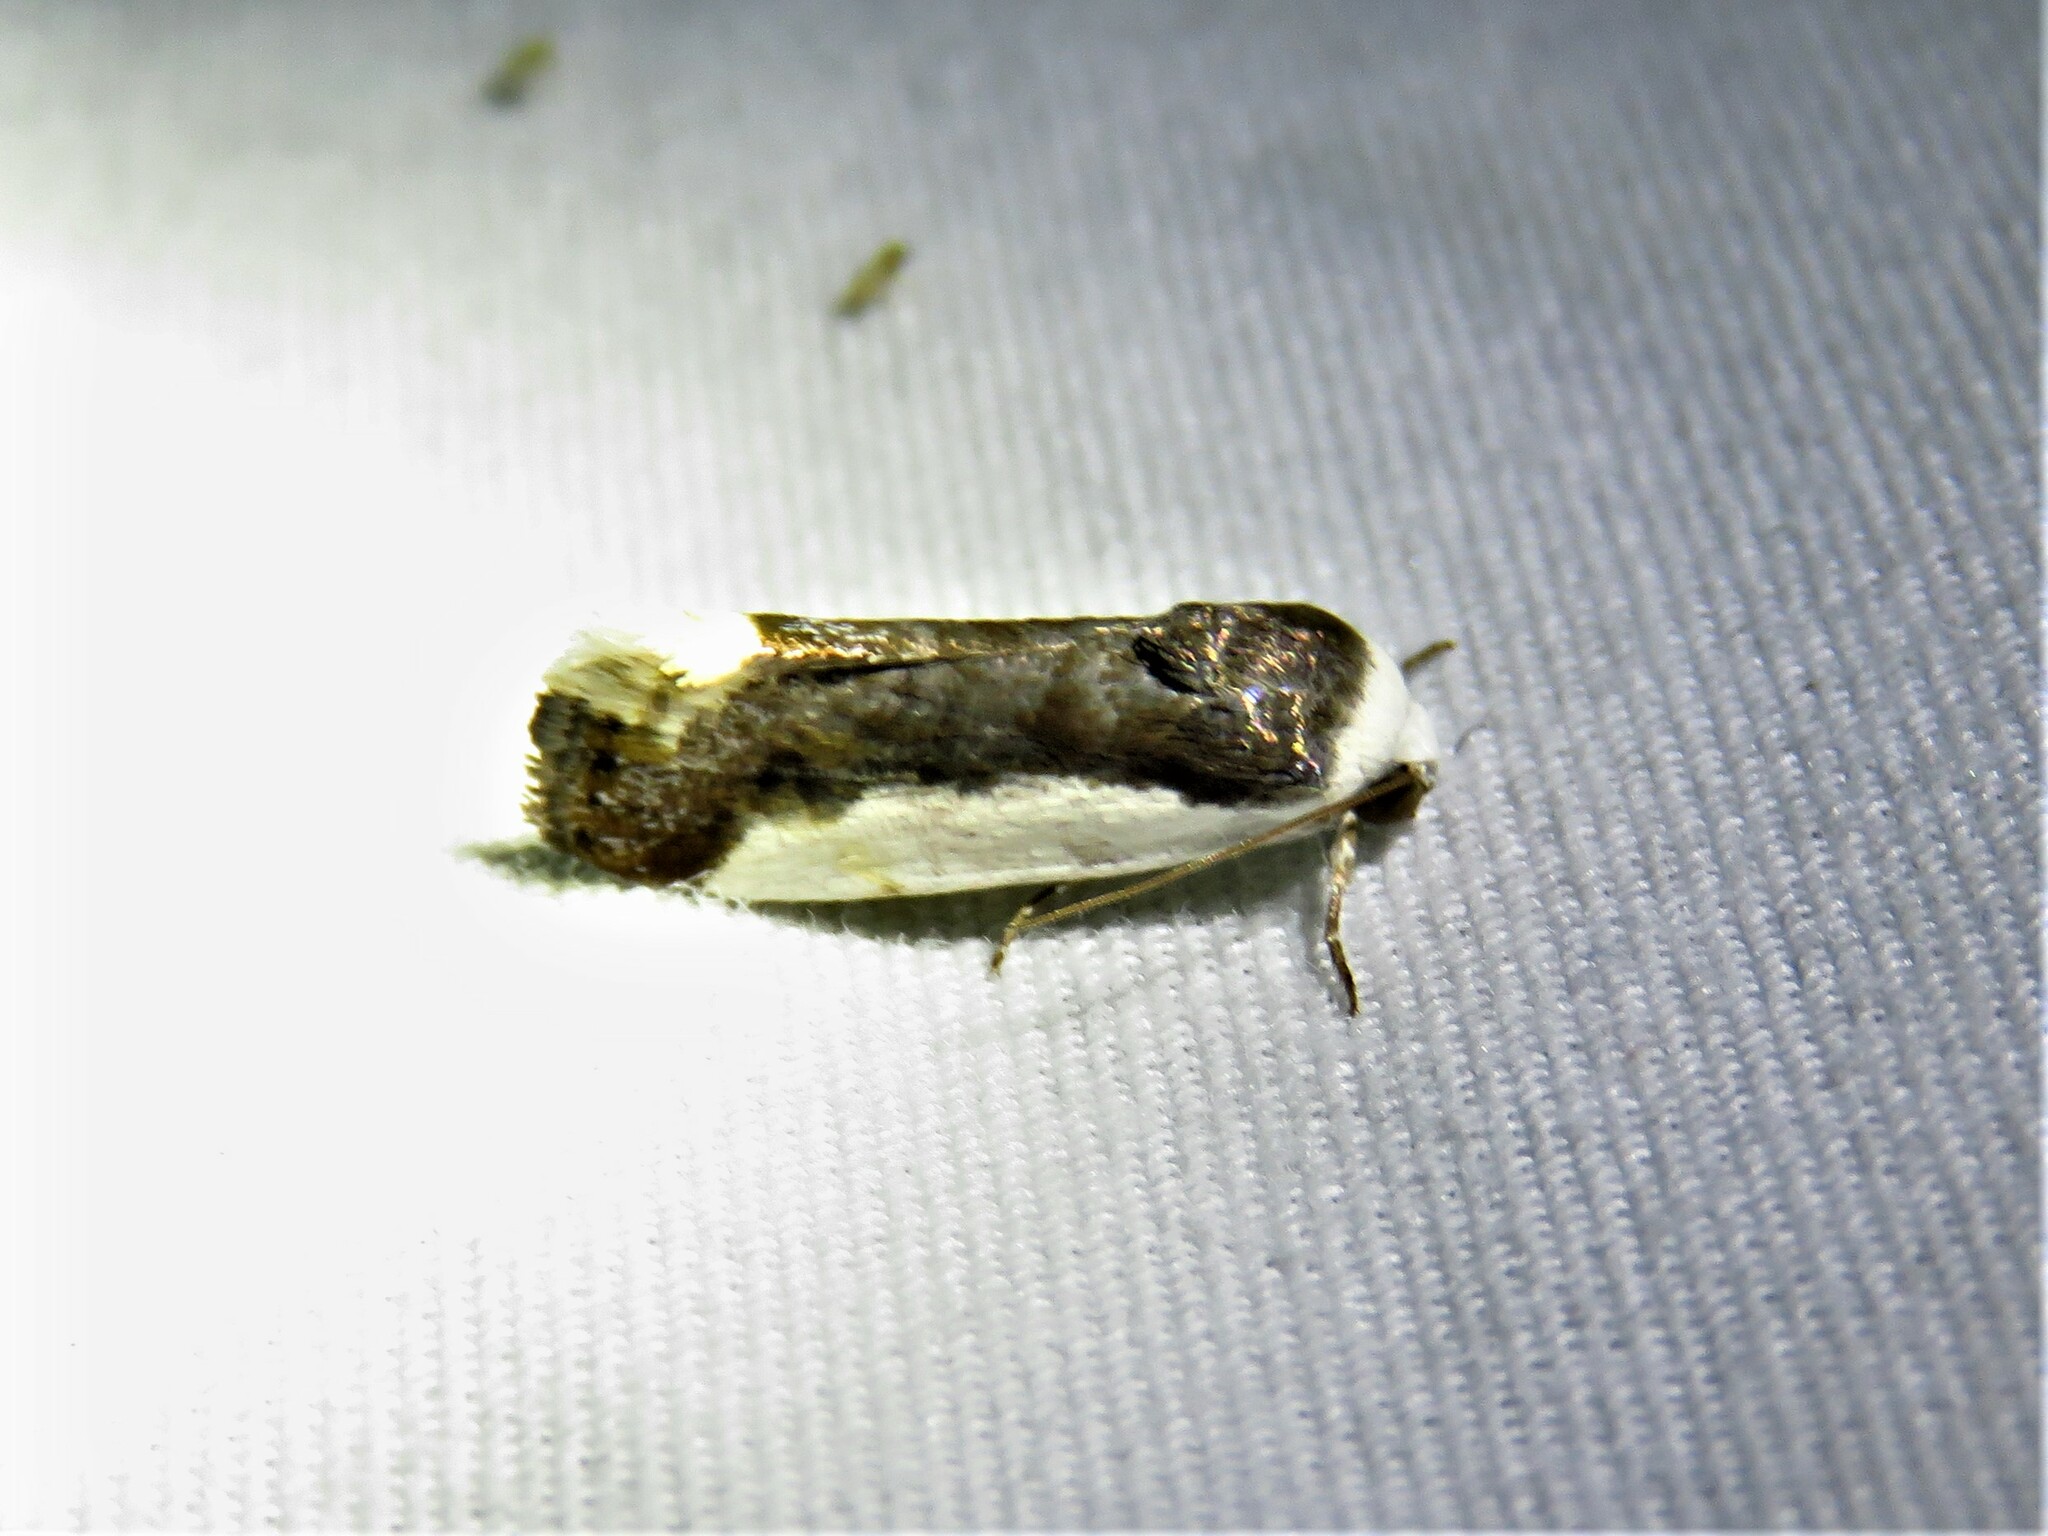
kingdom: Animalia
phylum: Arthropoda
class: Insecta
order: Lepidoptera
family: Noctuidae
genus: Acontia
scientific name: Acontia Tarache expolita
